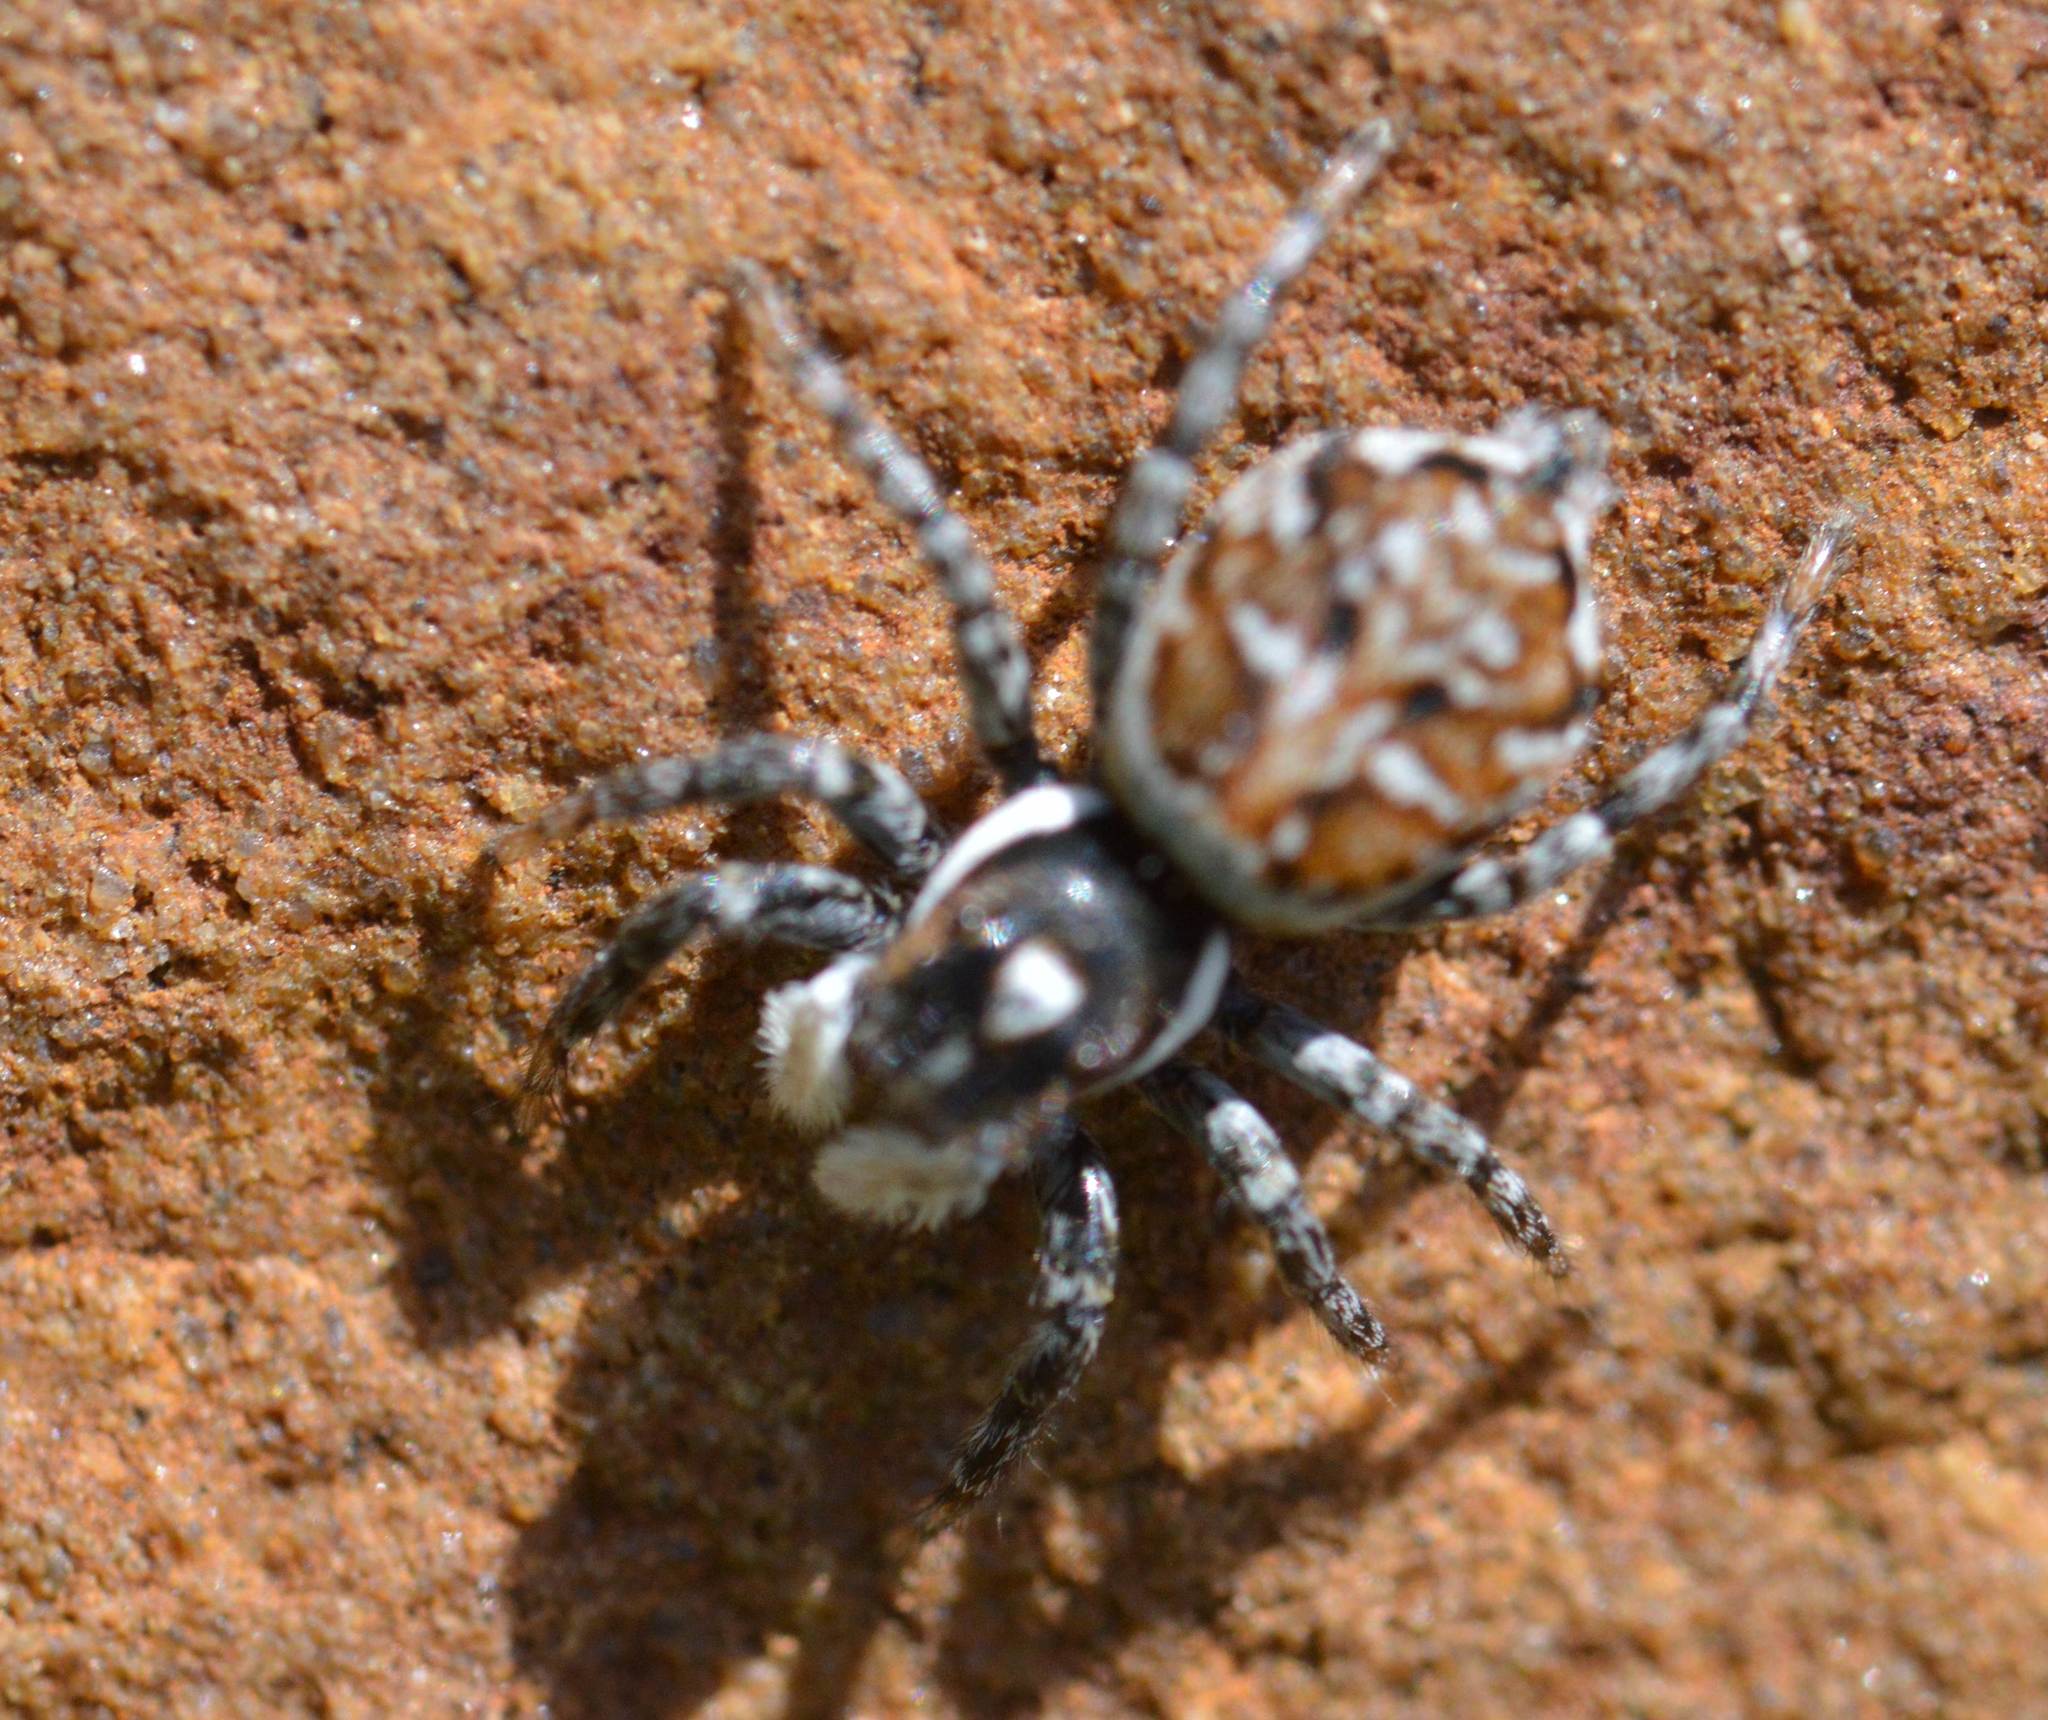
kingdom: Animalia
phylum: Arthropoda
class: Arachnida
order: Araneae
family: Salticidae
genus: Menemerus
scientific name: Menemerus semilimbatus
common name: Jumping spider
